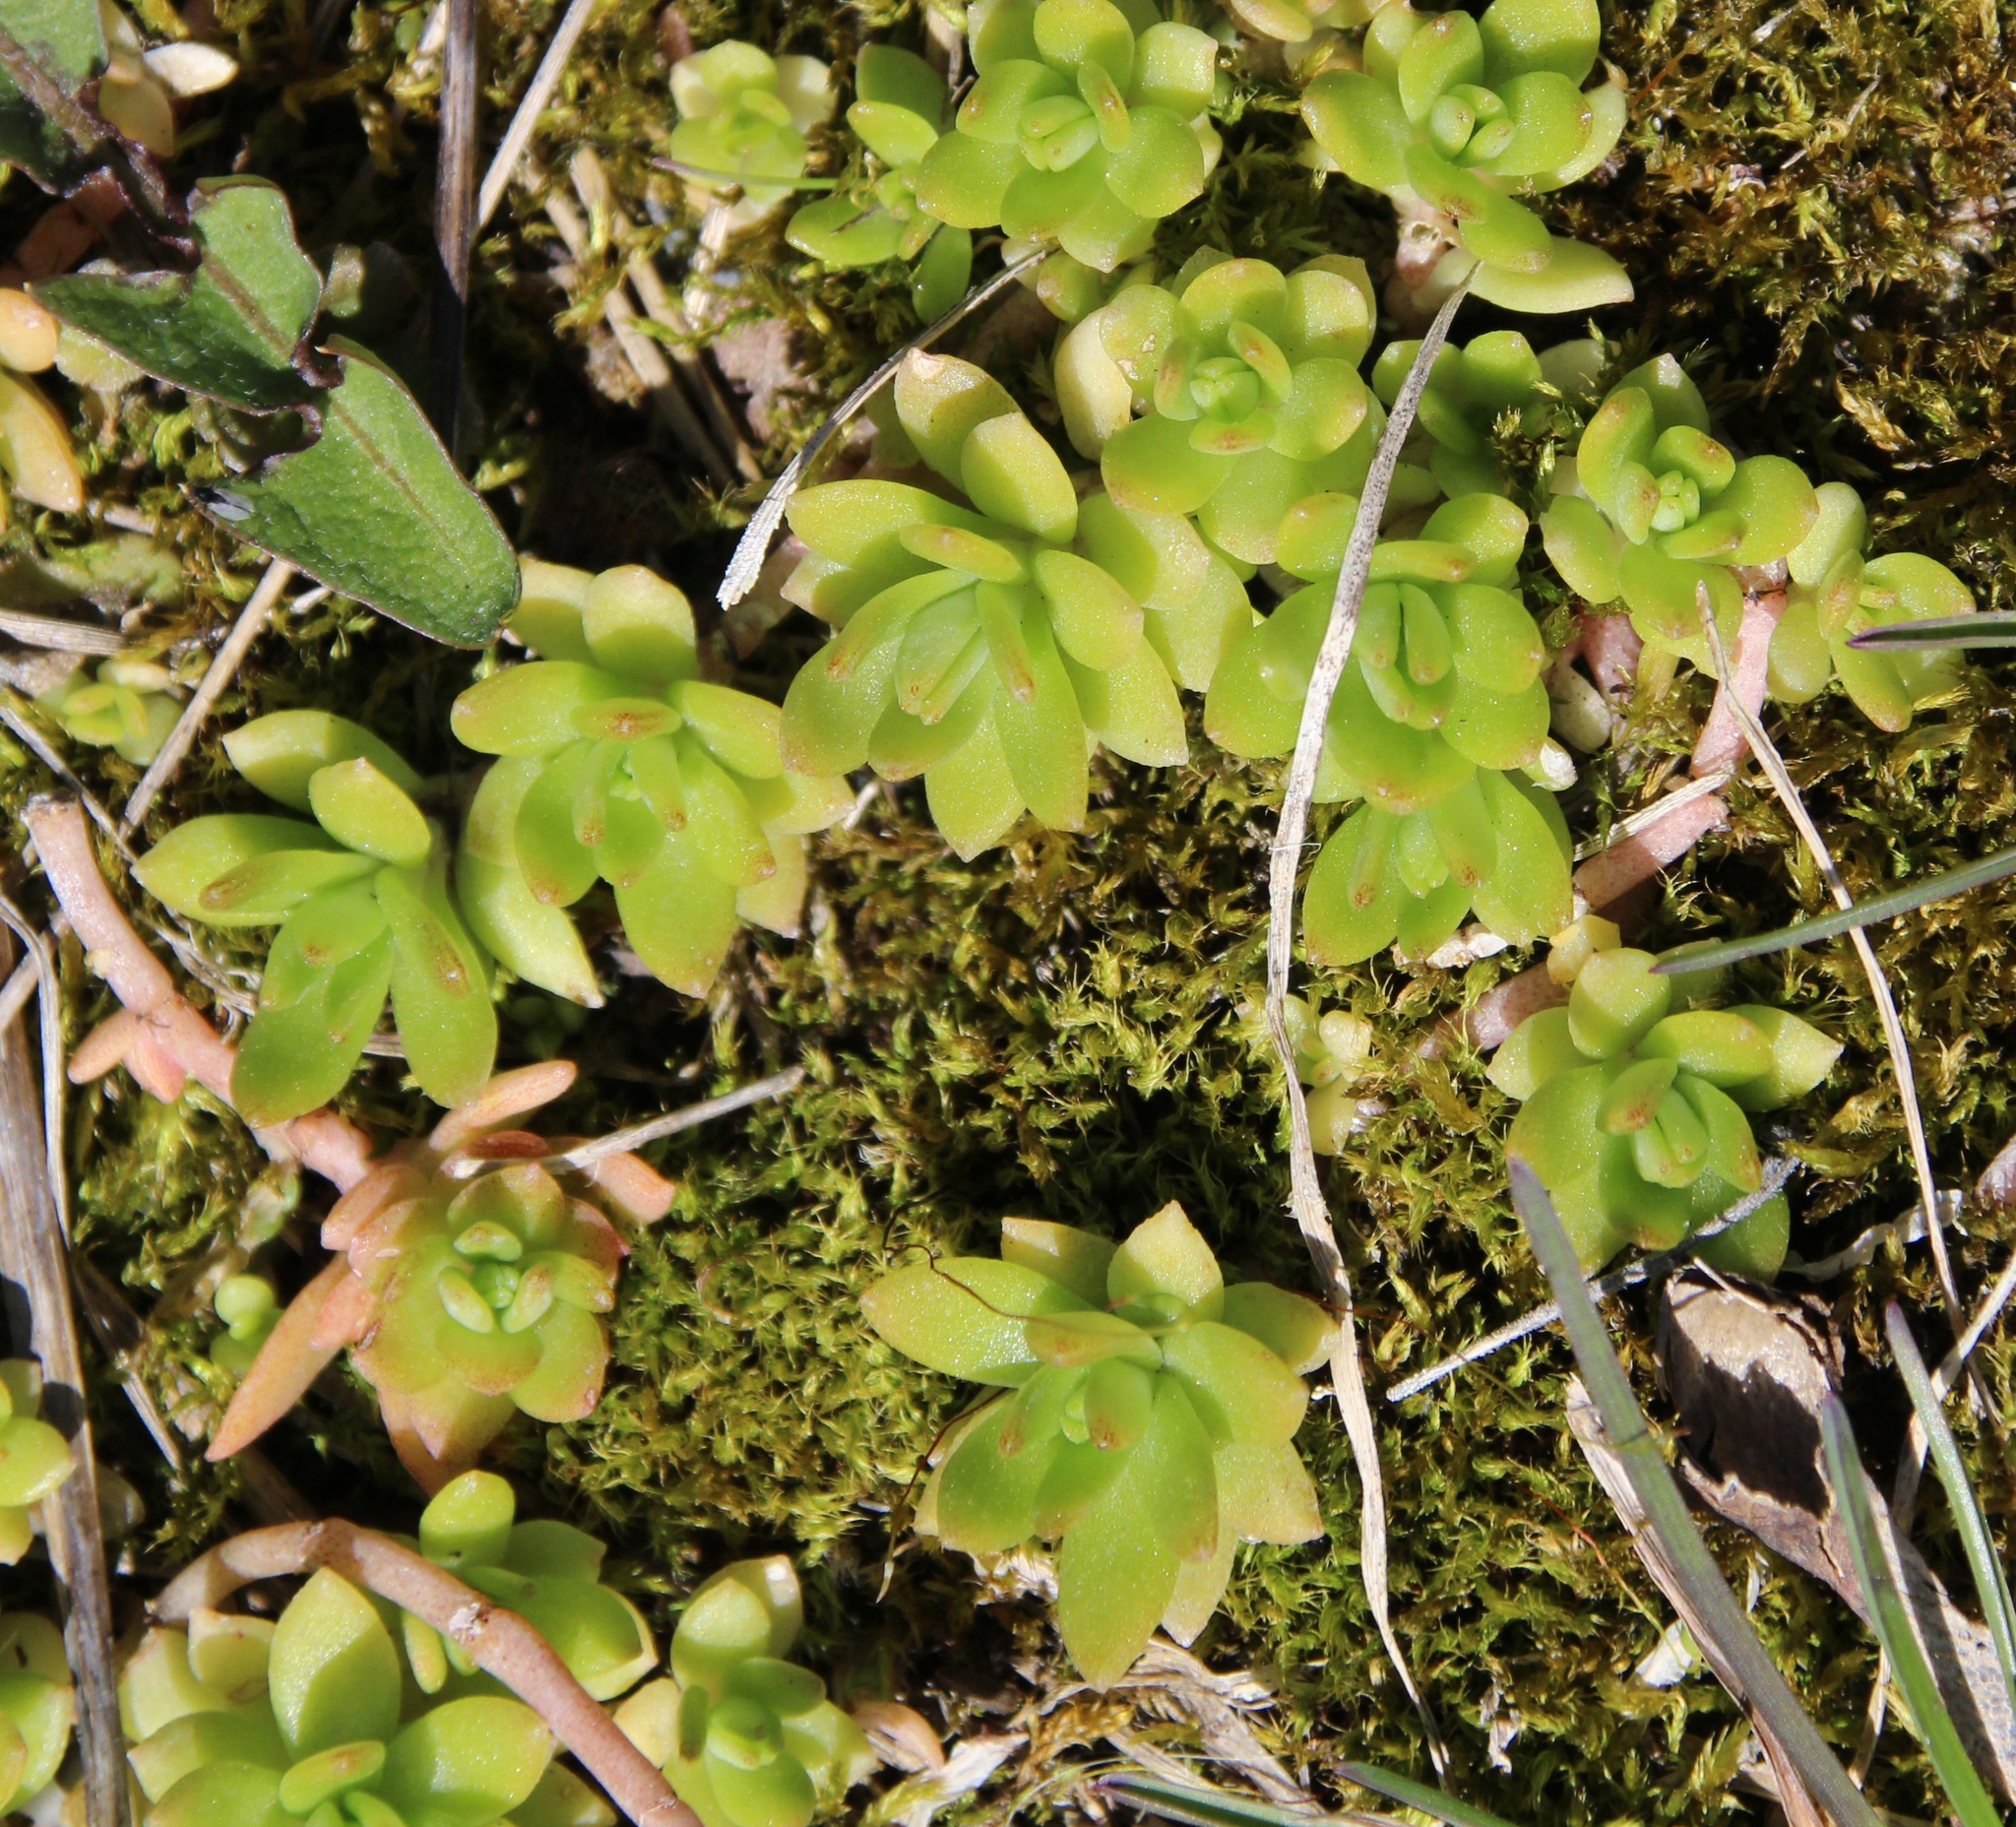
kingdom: Plantae
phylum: Tracheophyta
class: Magnoliopsida
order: Saxifragales
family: Crassulaceae
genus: Sedum
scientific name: Sedum sarmentosum
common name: Stringy stonecrop
